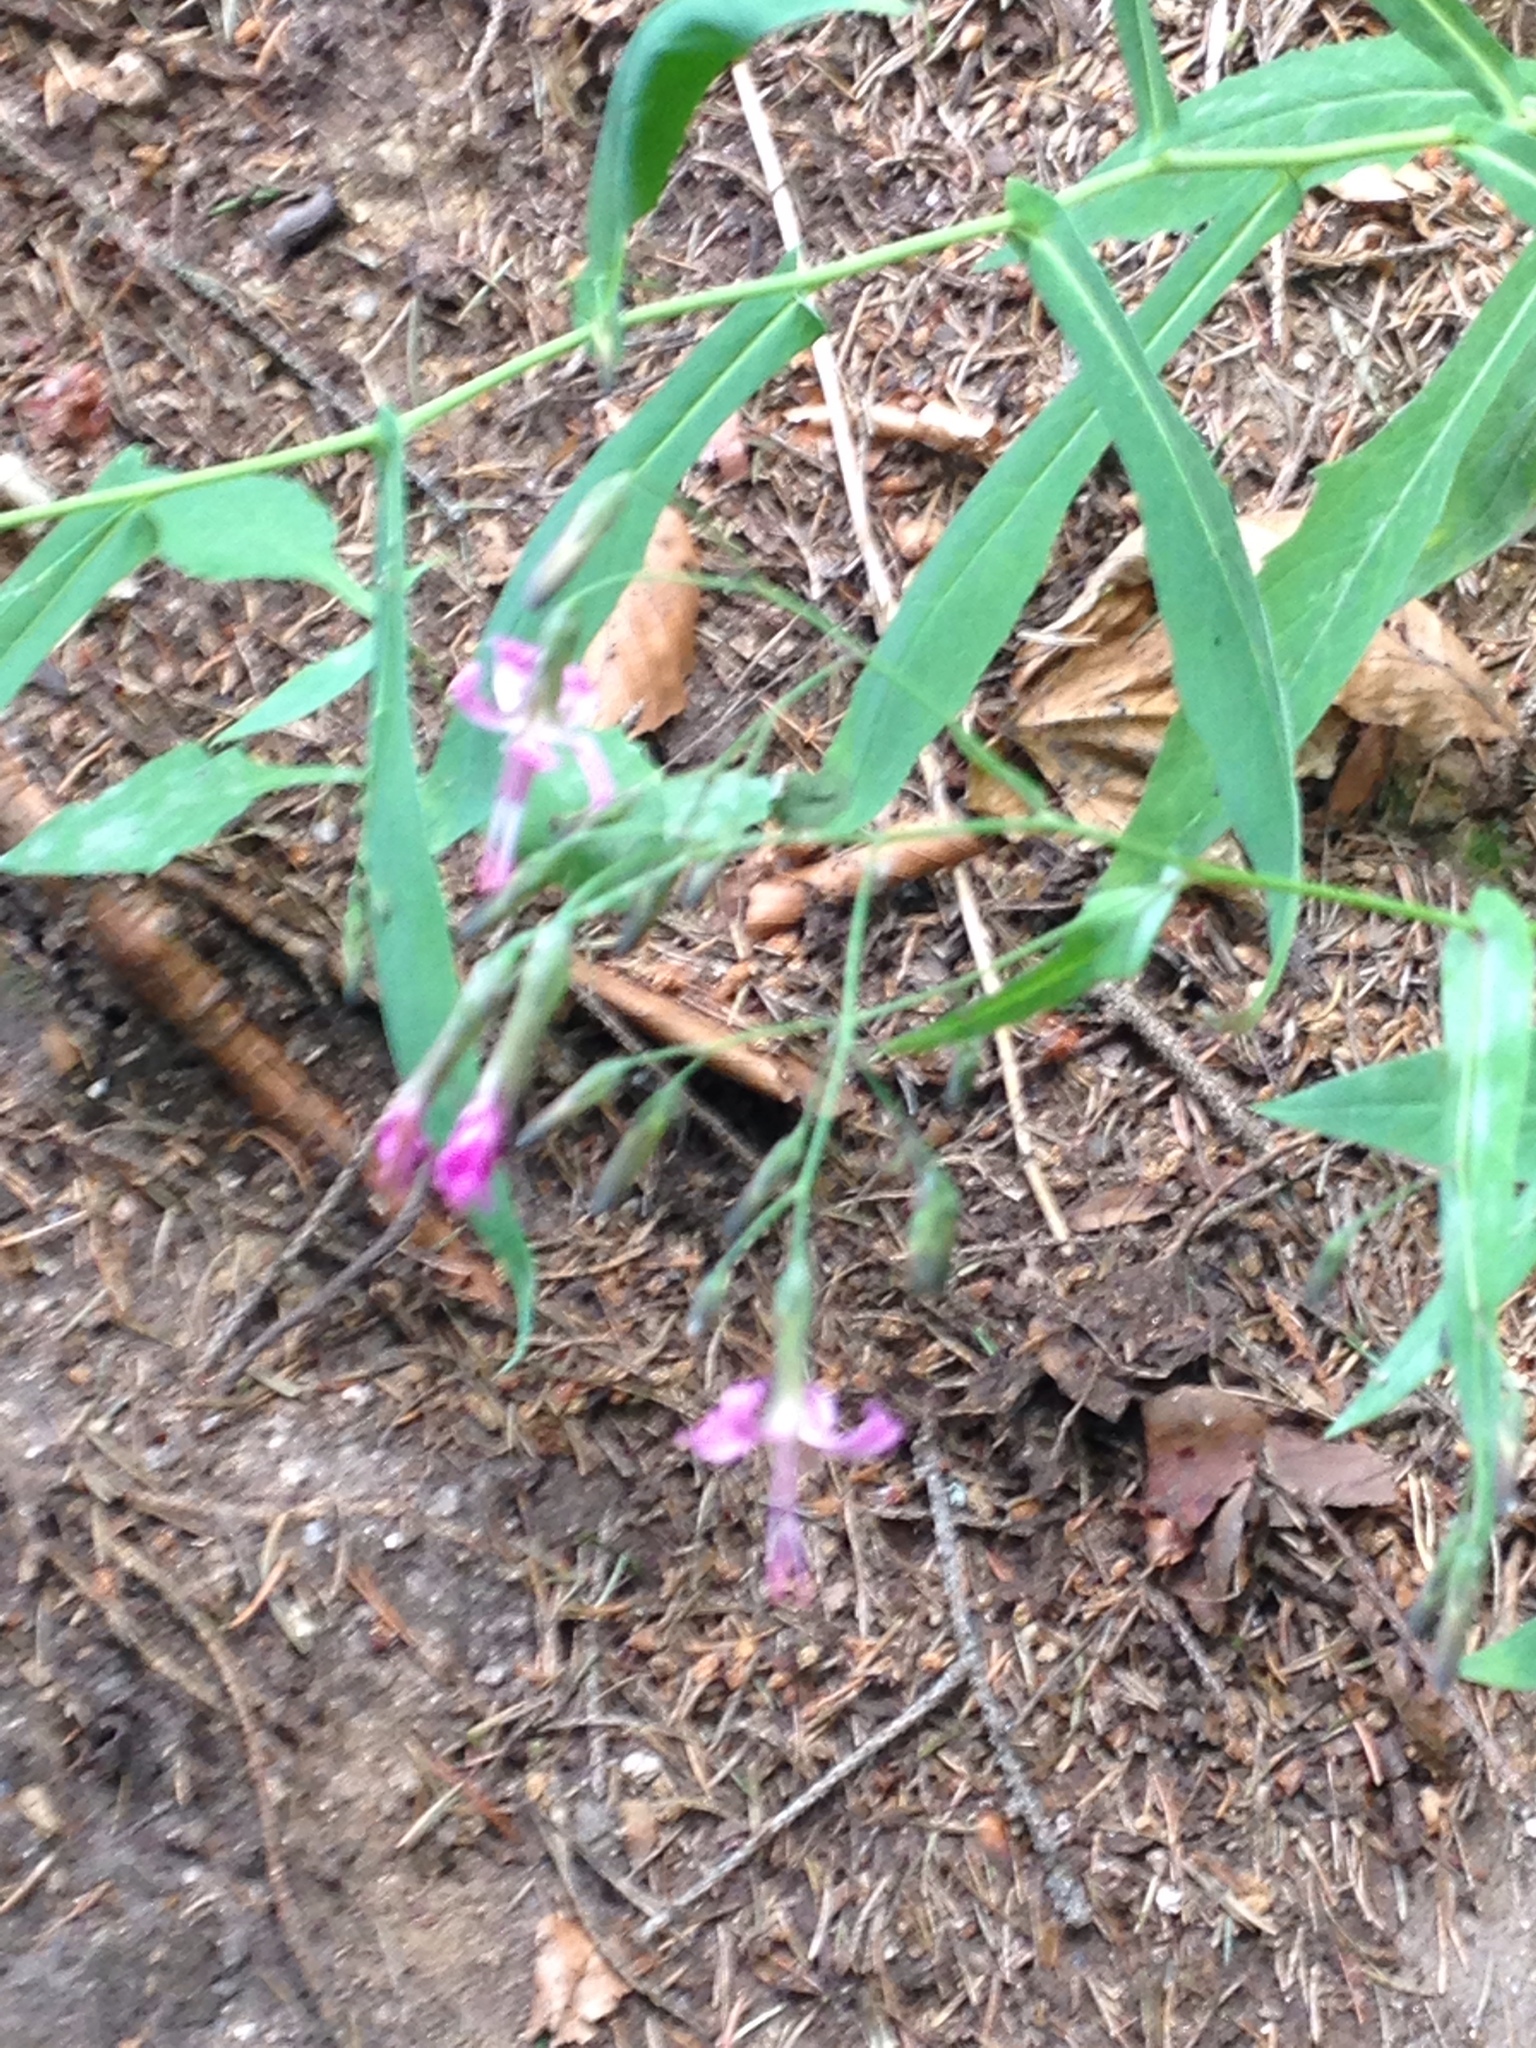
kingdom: Plantae
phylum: Tracheophyta
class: Magnoliopsida
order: Asterales
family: Asteraceae
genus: Prenanthes
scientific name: Prenanthes purpurea
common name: Purple lettuce
